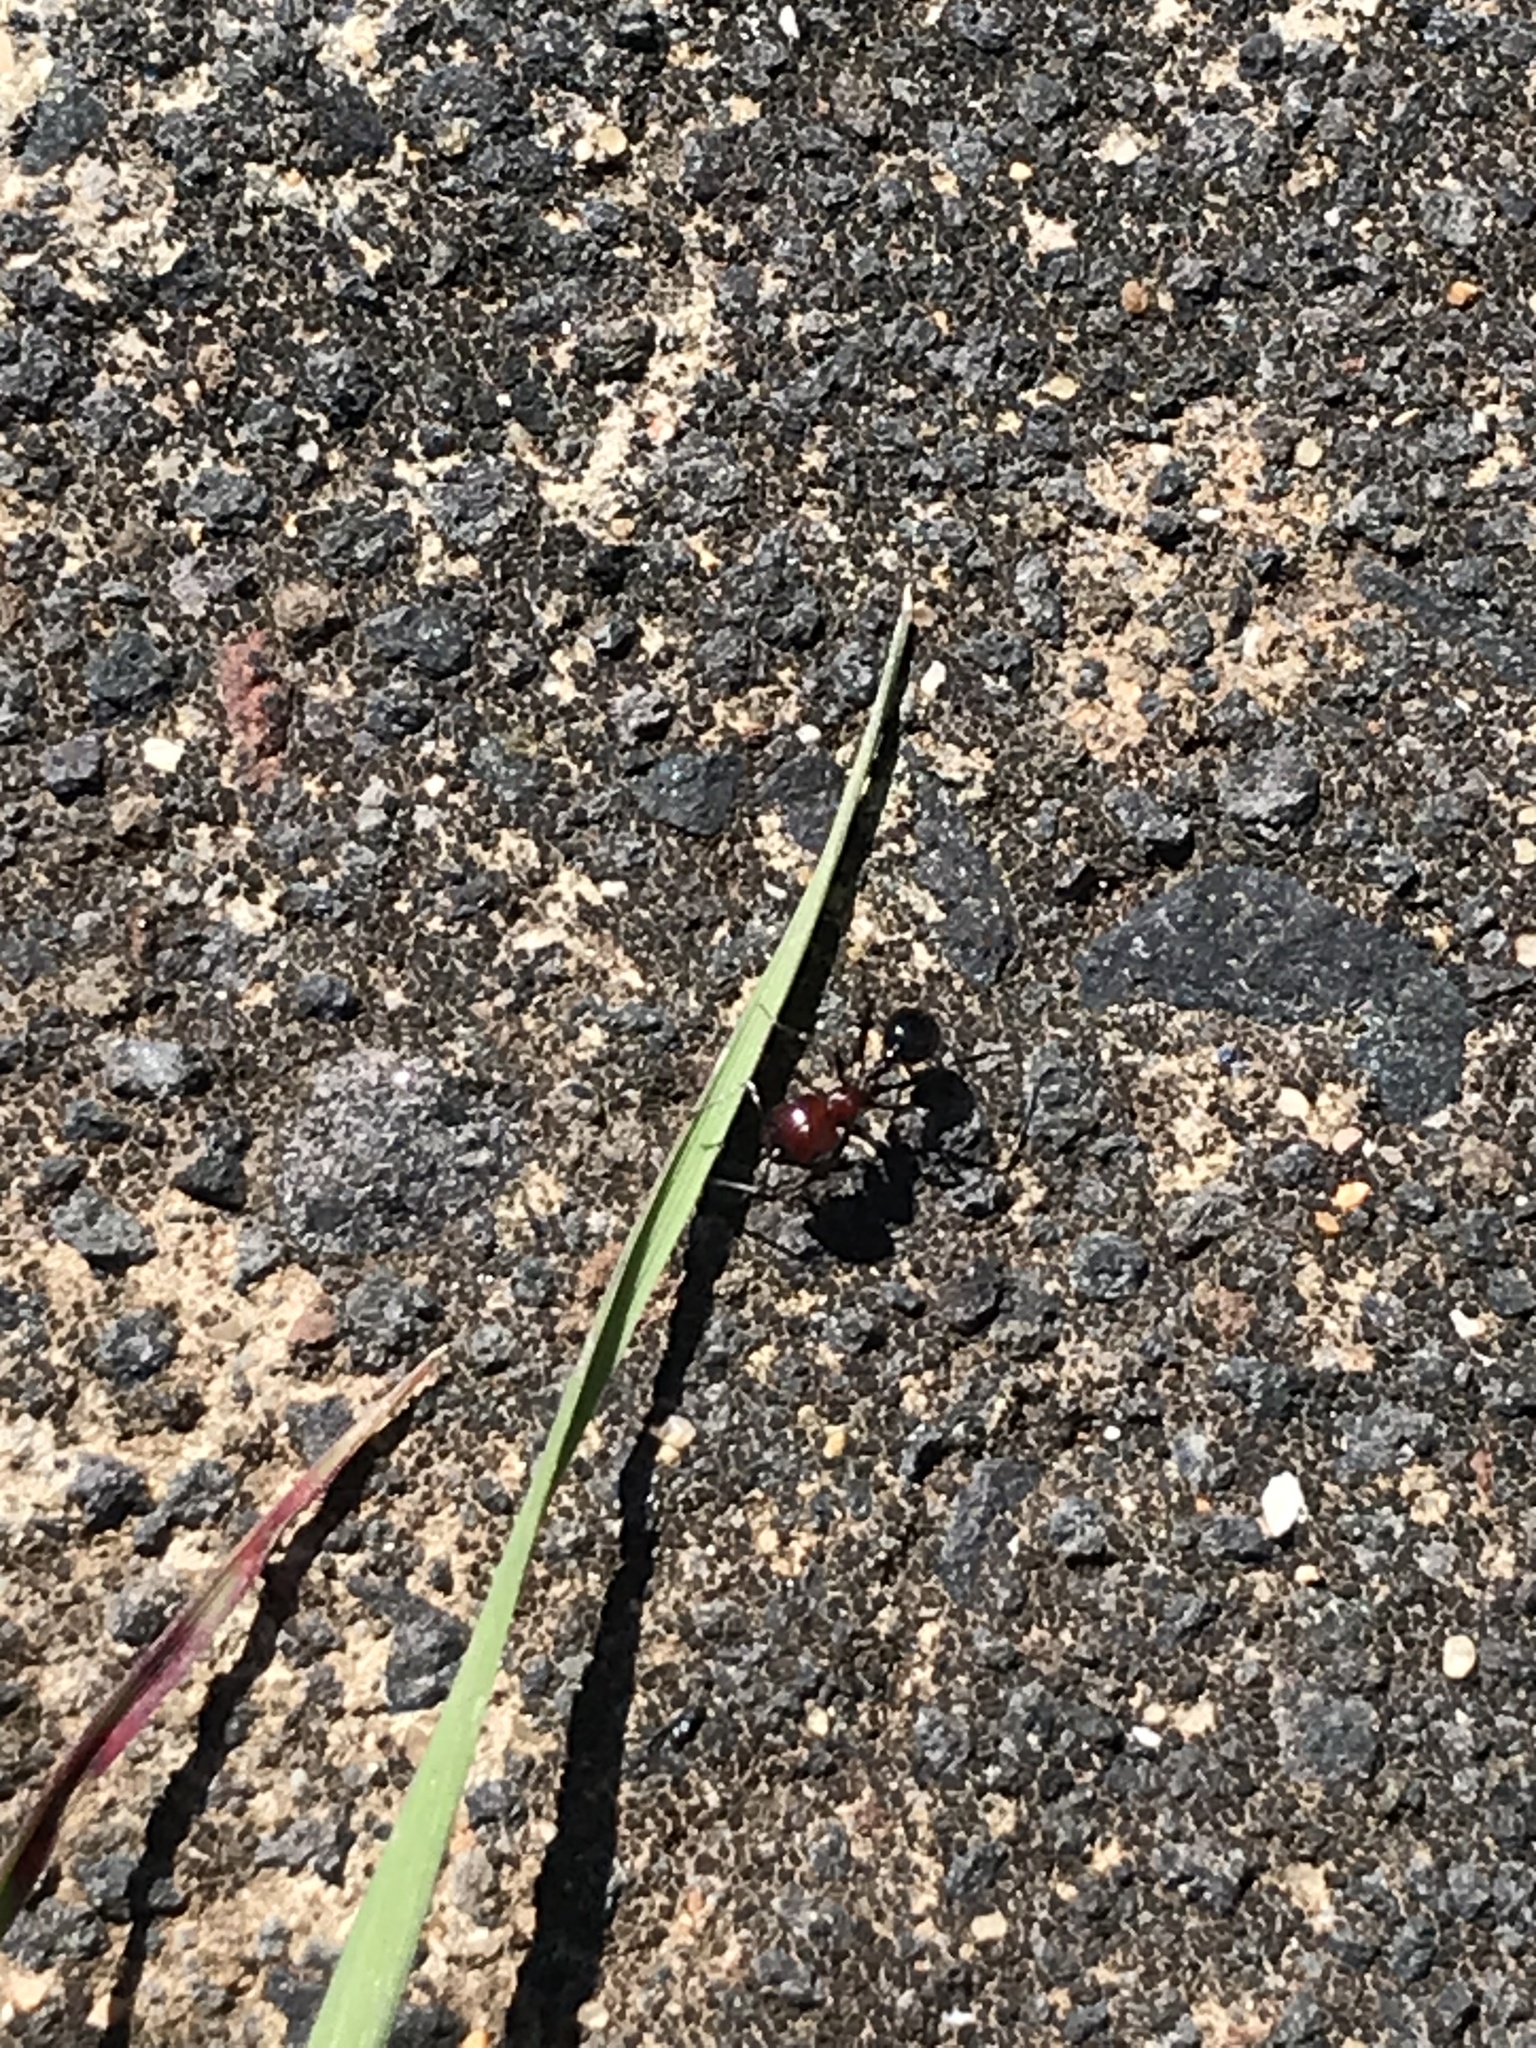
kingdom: Animalia
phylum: Arthropoda
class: Insecta
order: Hymenoptera
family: Formicidae
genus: Messor
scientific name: Messor minor
